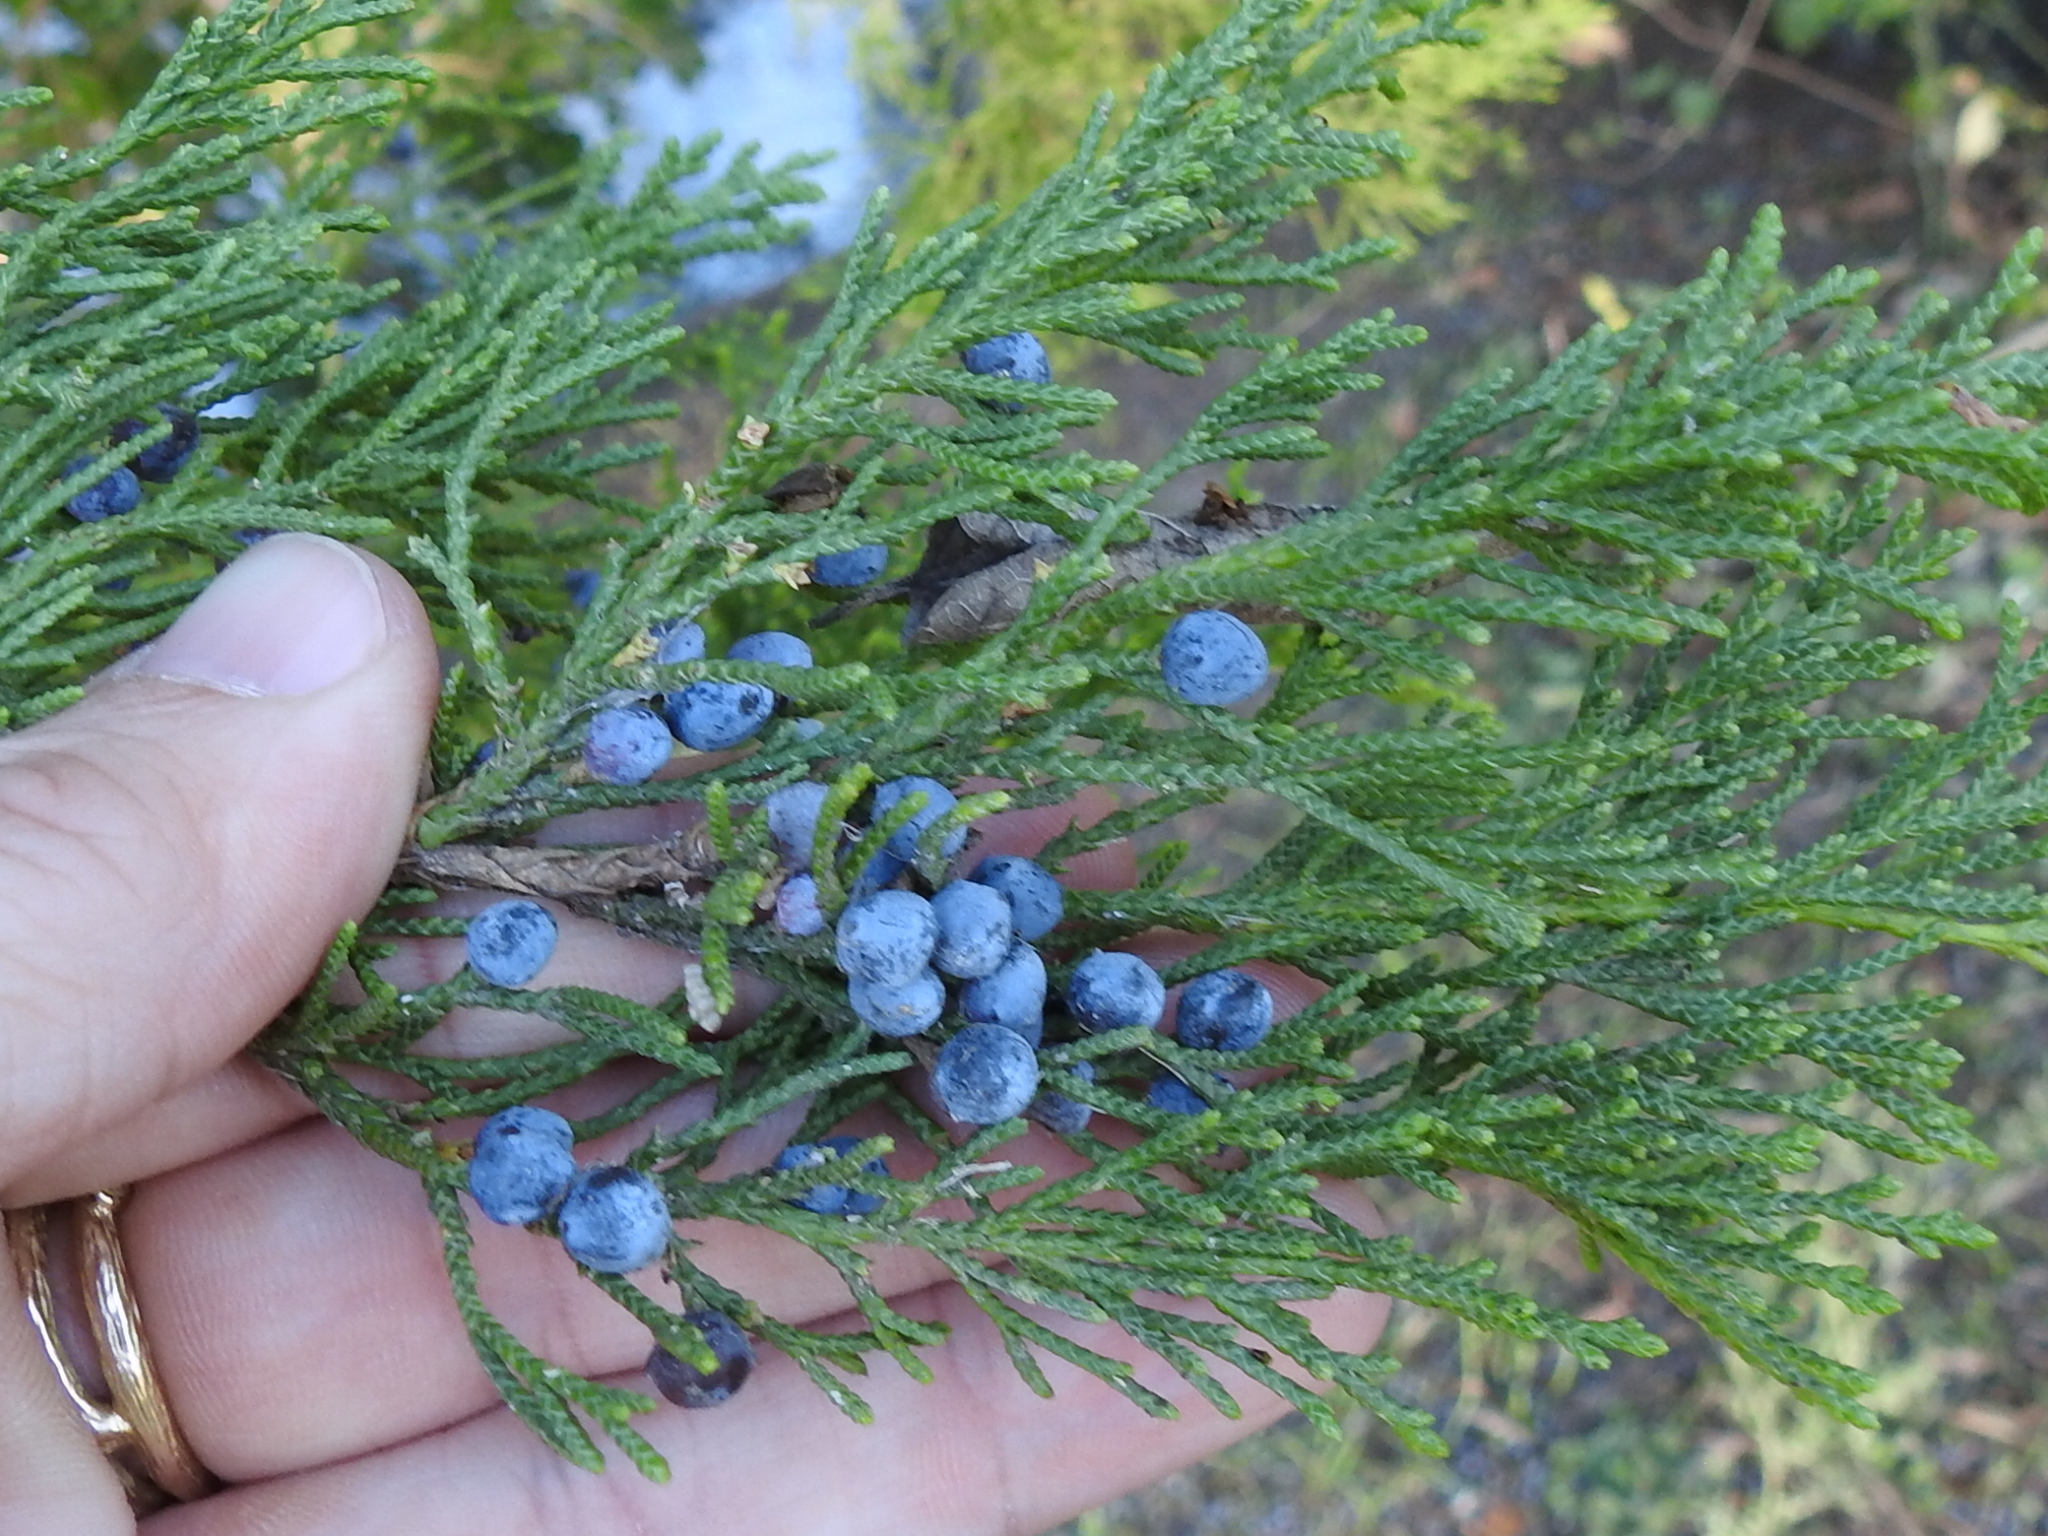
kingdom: Plantae
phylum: Tracheophyta
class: Pinopsida
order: Pinales
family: Cupressaceae
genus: Juniperus
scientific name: Juniperus virginiana
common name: Red juniper
